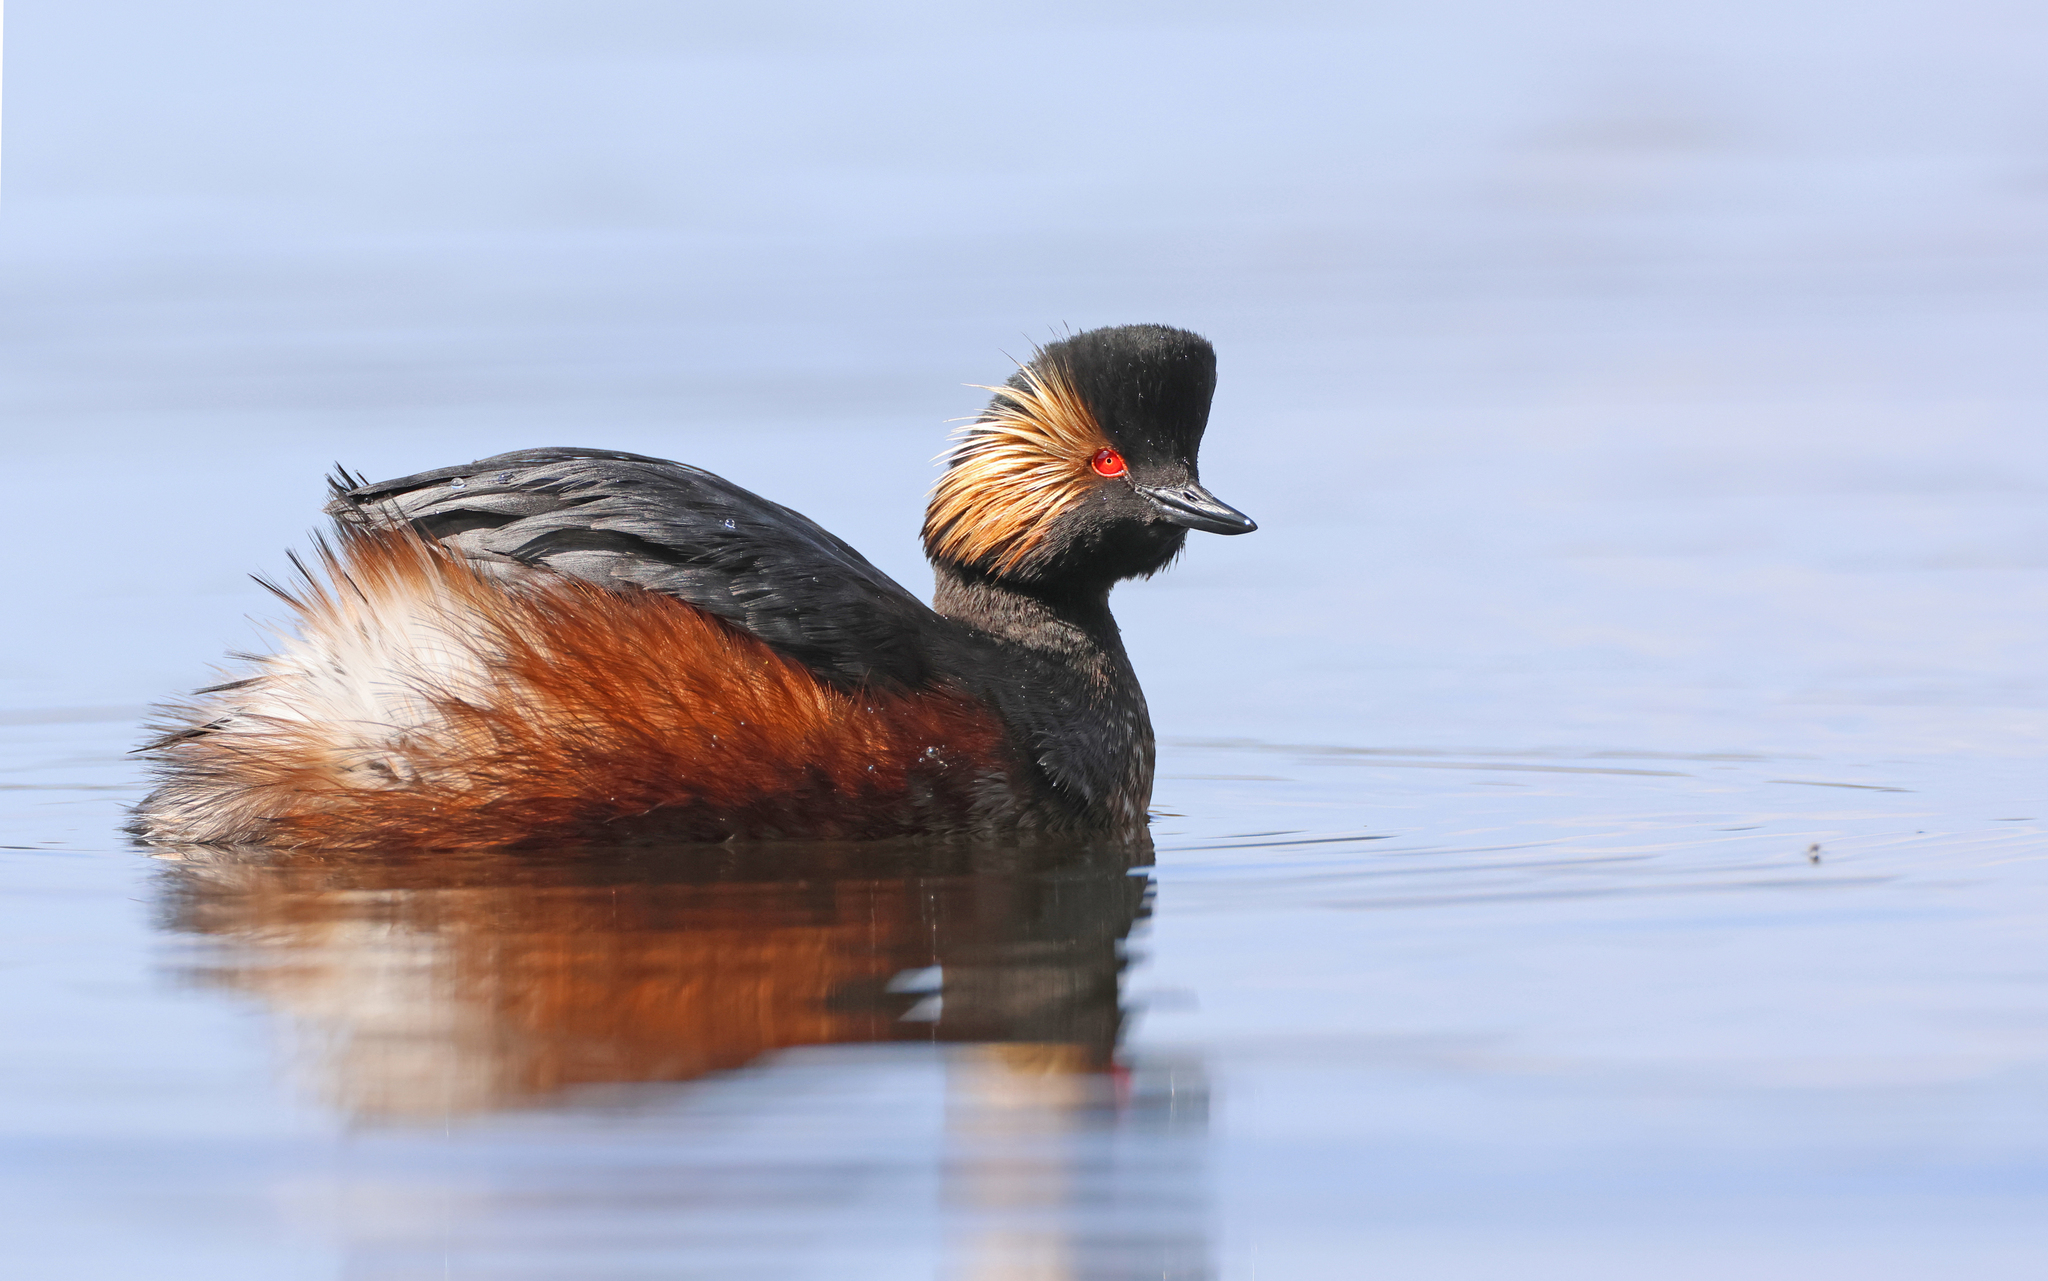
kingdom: Animalia
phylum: Chordata
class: Aves
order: Podicipediformes
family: Podicipedidae
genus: Podiceps
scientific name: Podiceps nigricollis
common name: Black-necked grebe
